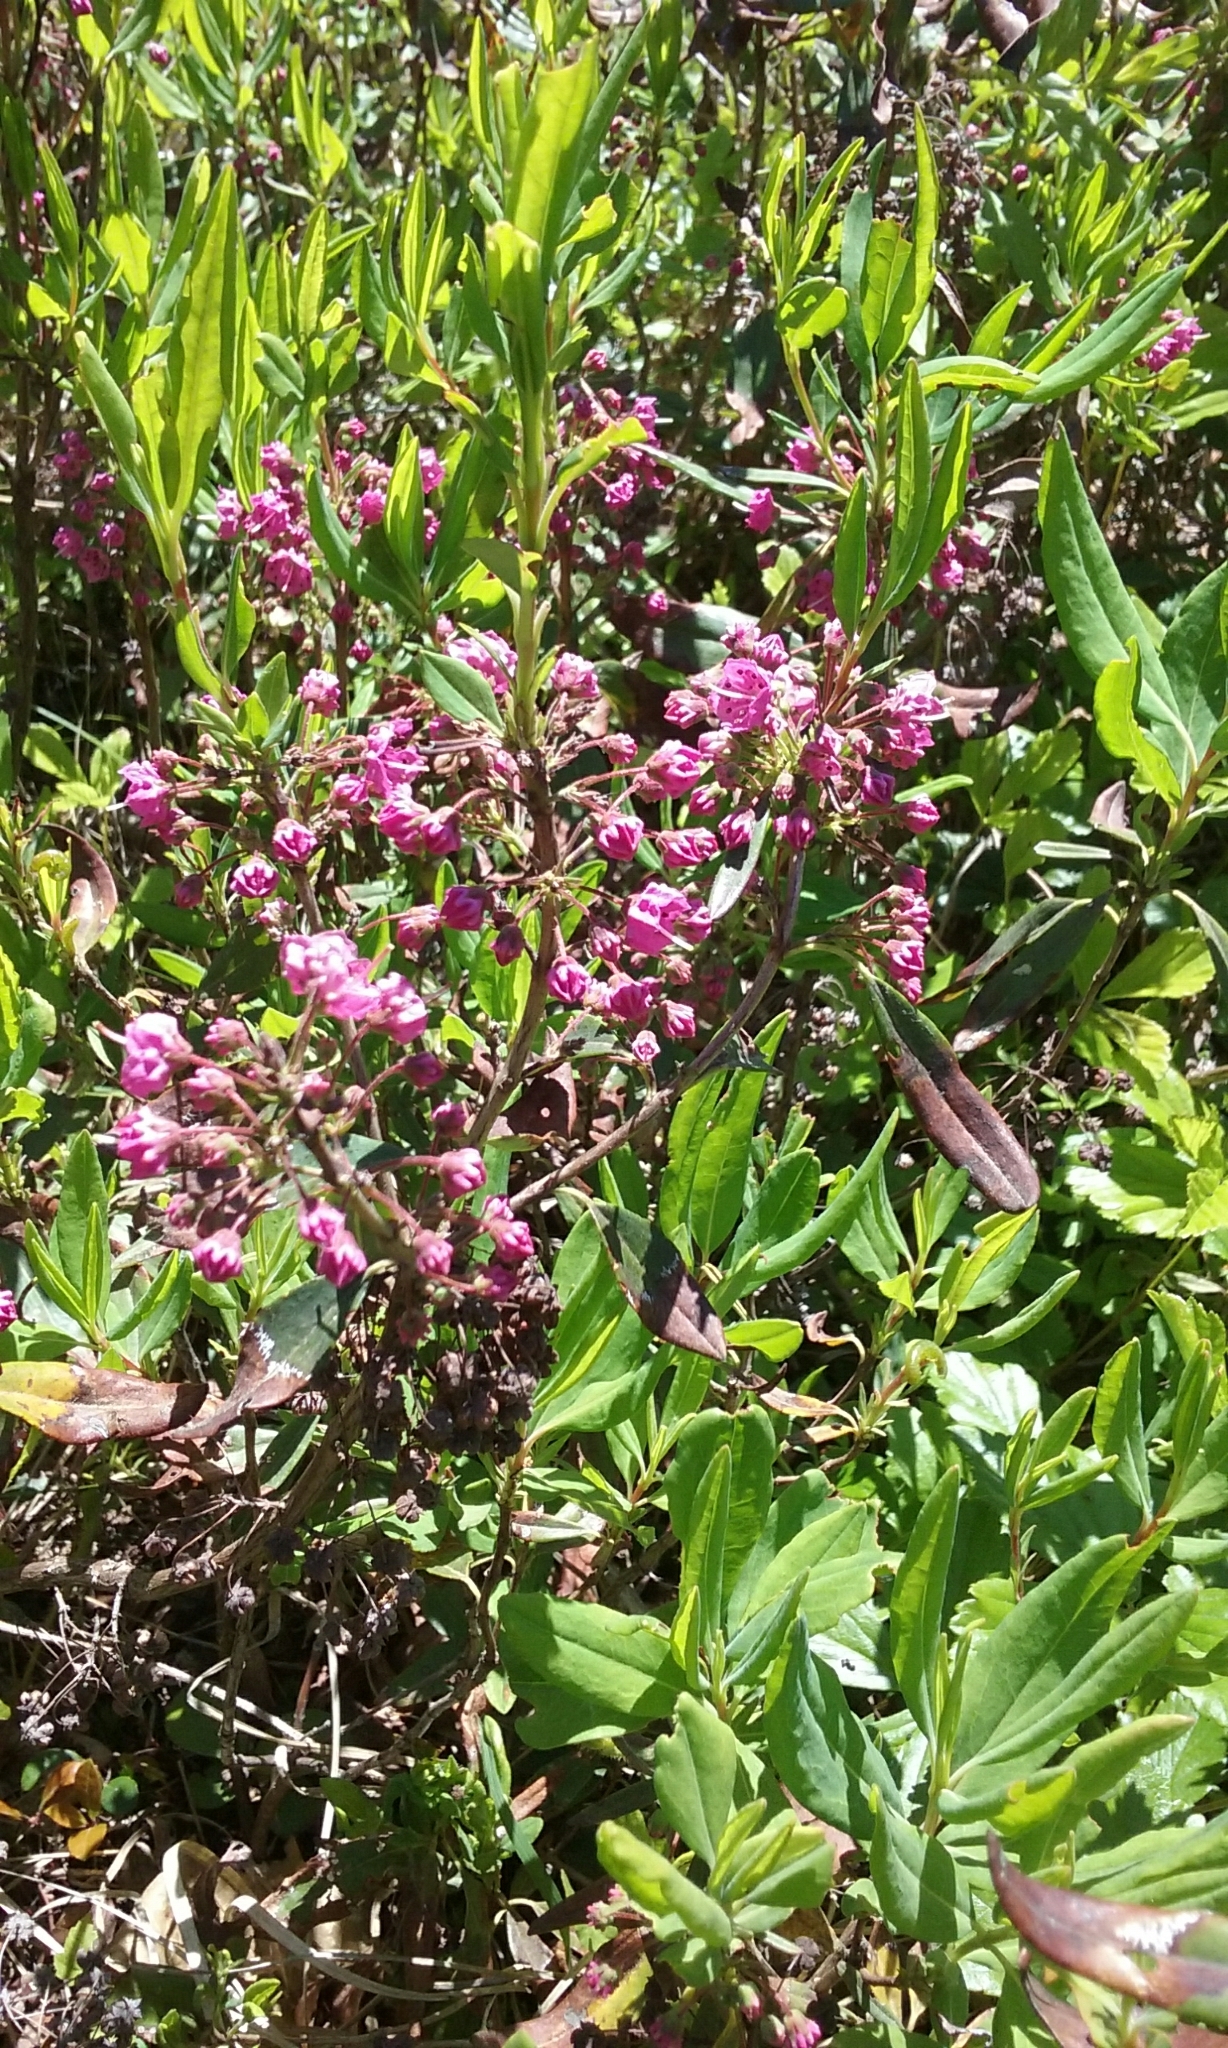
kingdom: Plantae
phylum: Tracheophyta
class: Magnoliopsida
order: Ericales
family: Ericaceae
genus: Kalmia
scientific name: Kalmia angustifolia
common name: Sheep-laurel
